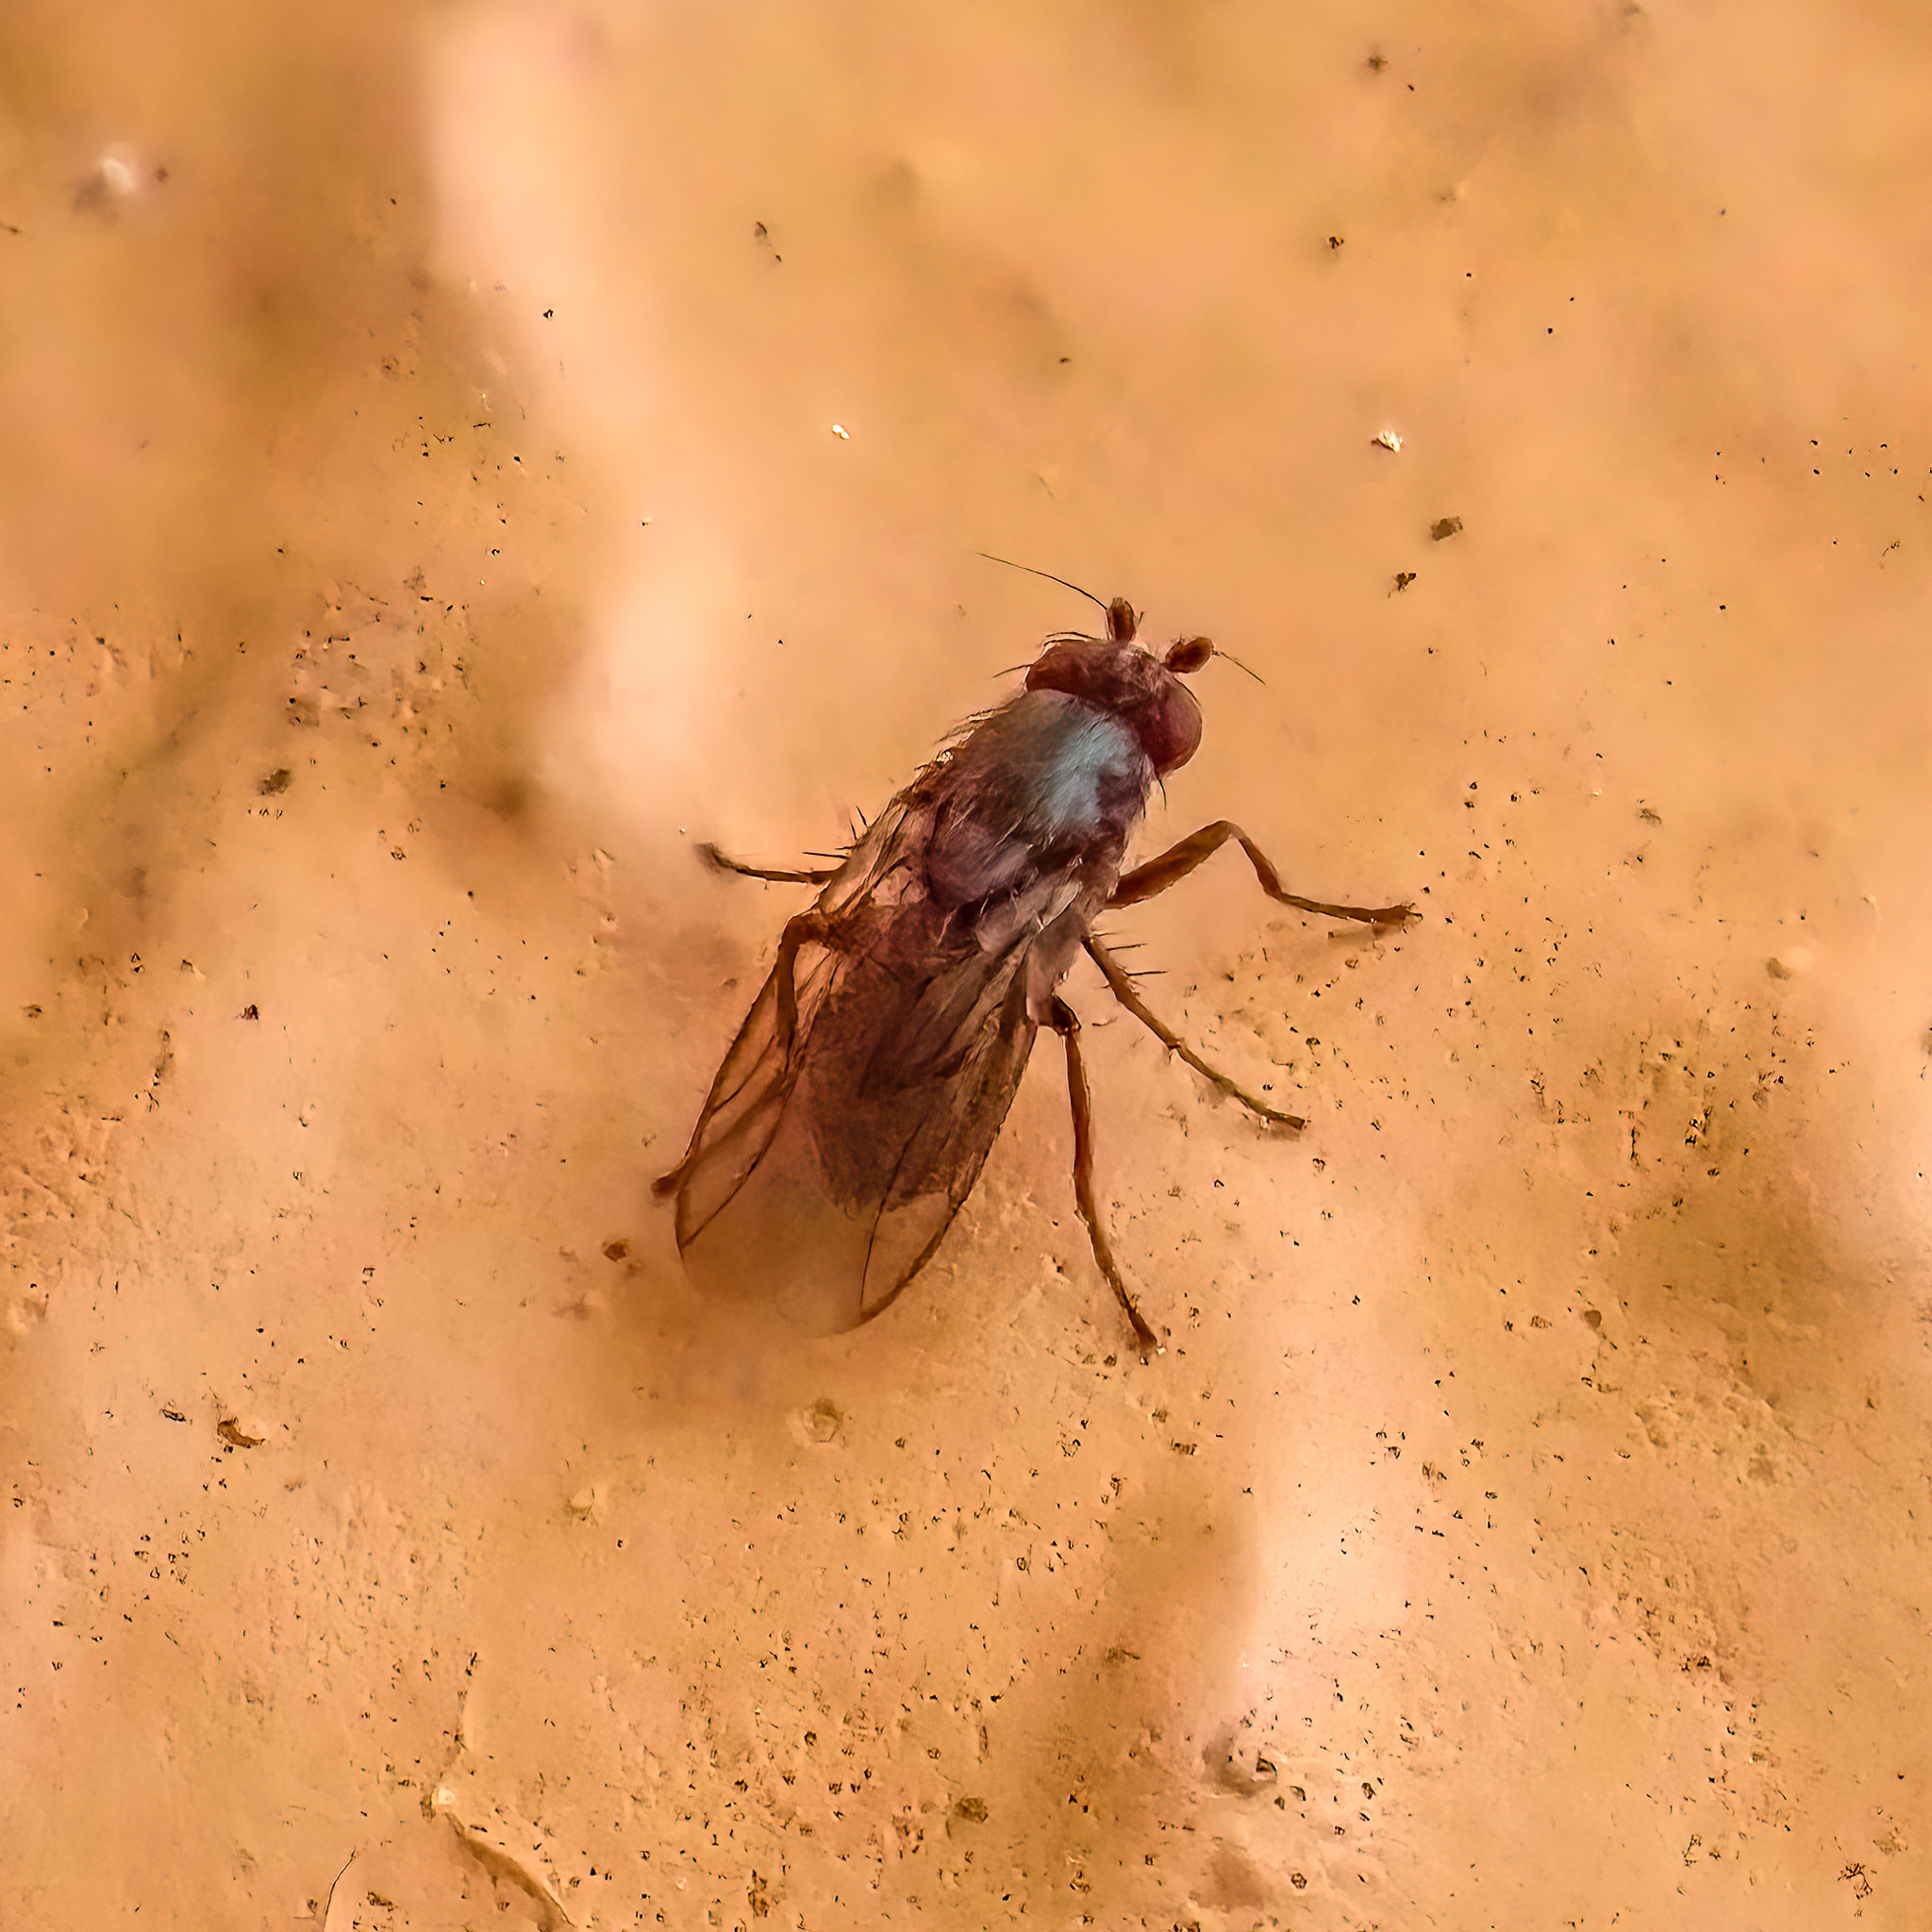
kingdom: Animalia
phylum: Arthropoda
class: Insecta
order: Diptera
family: Sphaeroceridae
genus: Leptocera
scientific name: Leptocera
